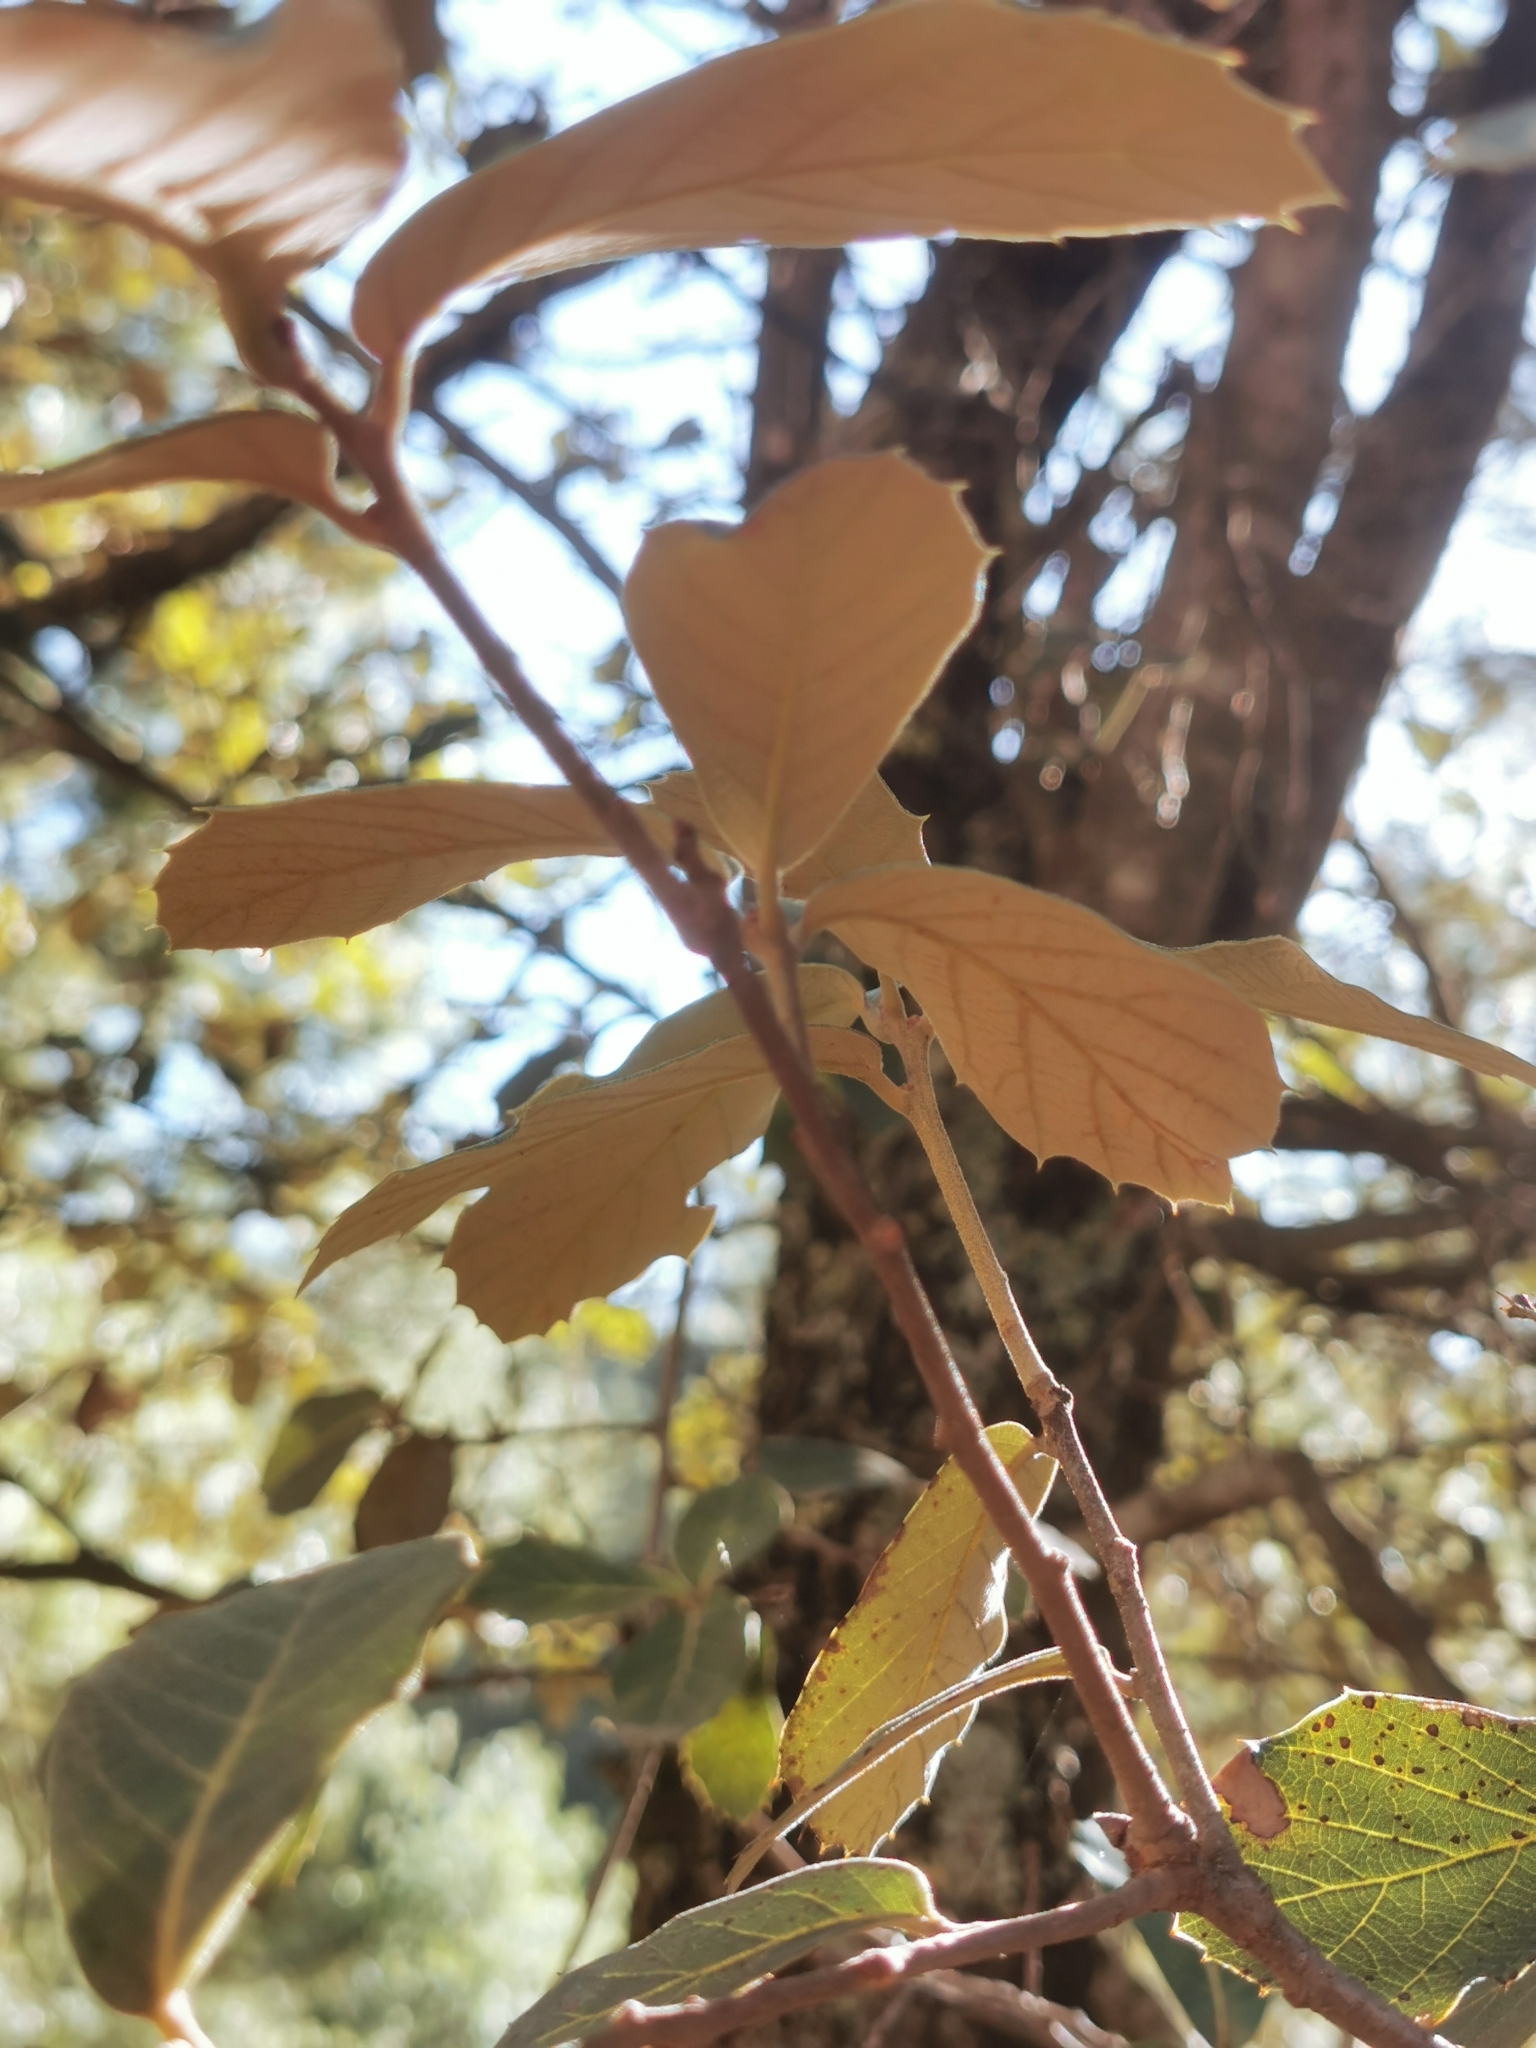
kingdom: Plantae
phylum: Tracheophyta
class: Magnoliopsida
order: Fagales
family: Fagaceae
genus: Quercus
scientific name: Quercus sideroxyla
